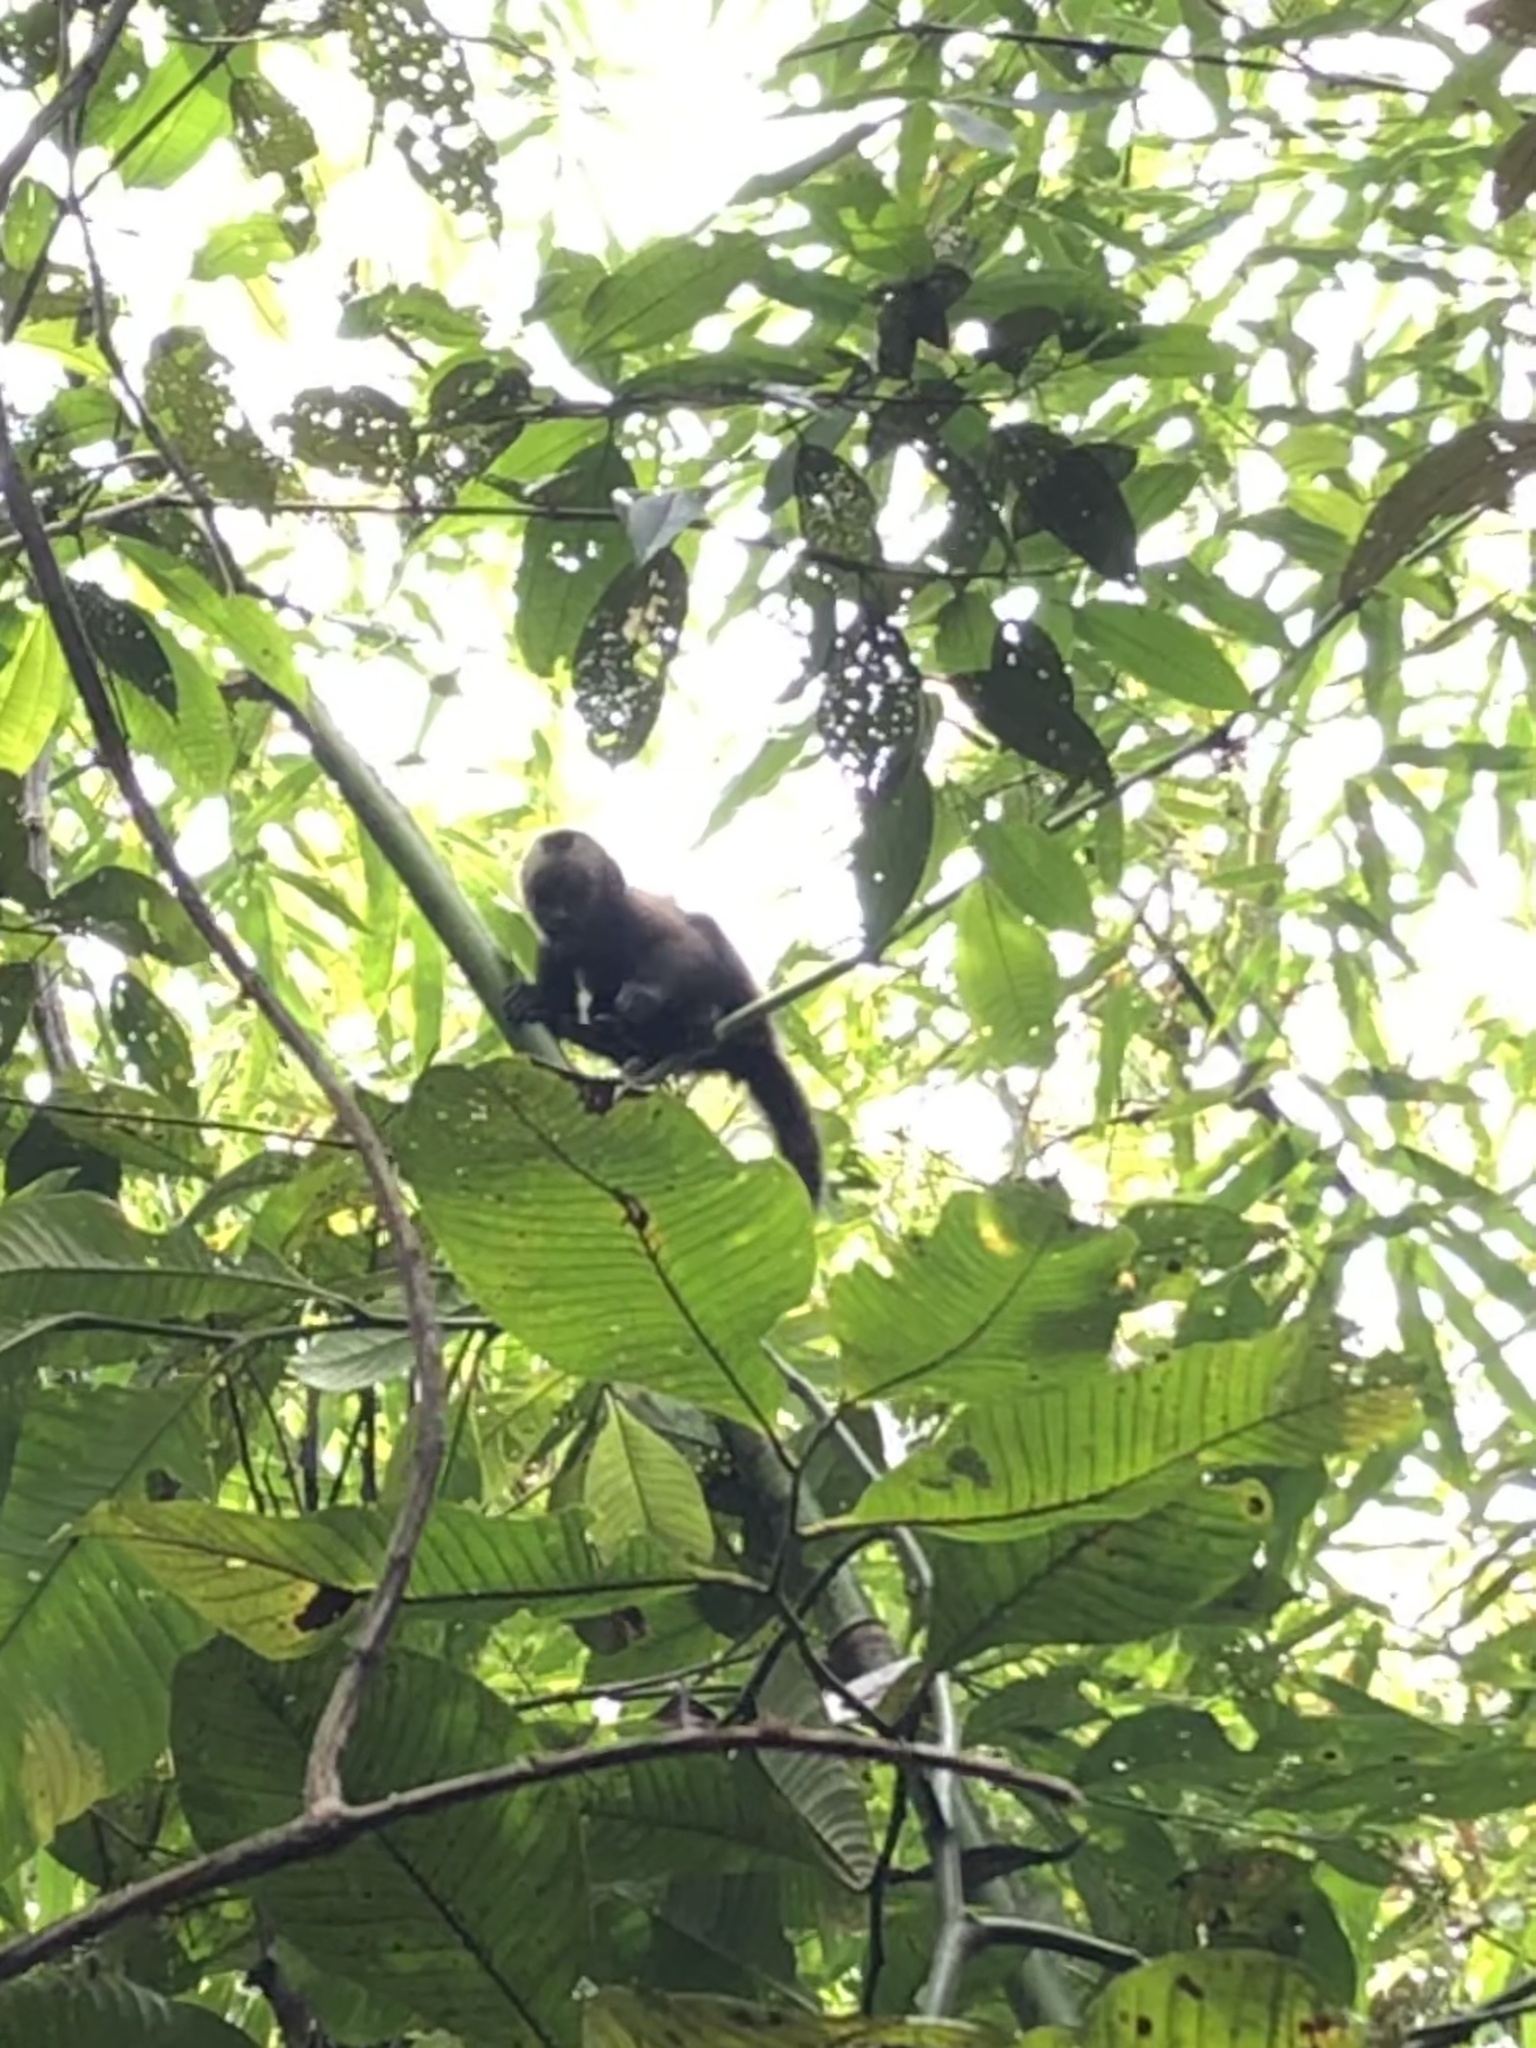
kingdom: Animalia
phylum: Chordata
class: Mammalia
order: Primates
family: Cebidae
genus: Sapajus
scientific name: Sapajus apella
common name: Tufted capuchin
